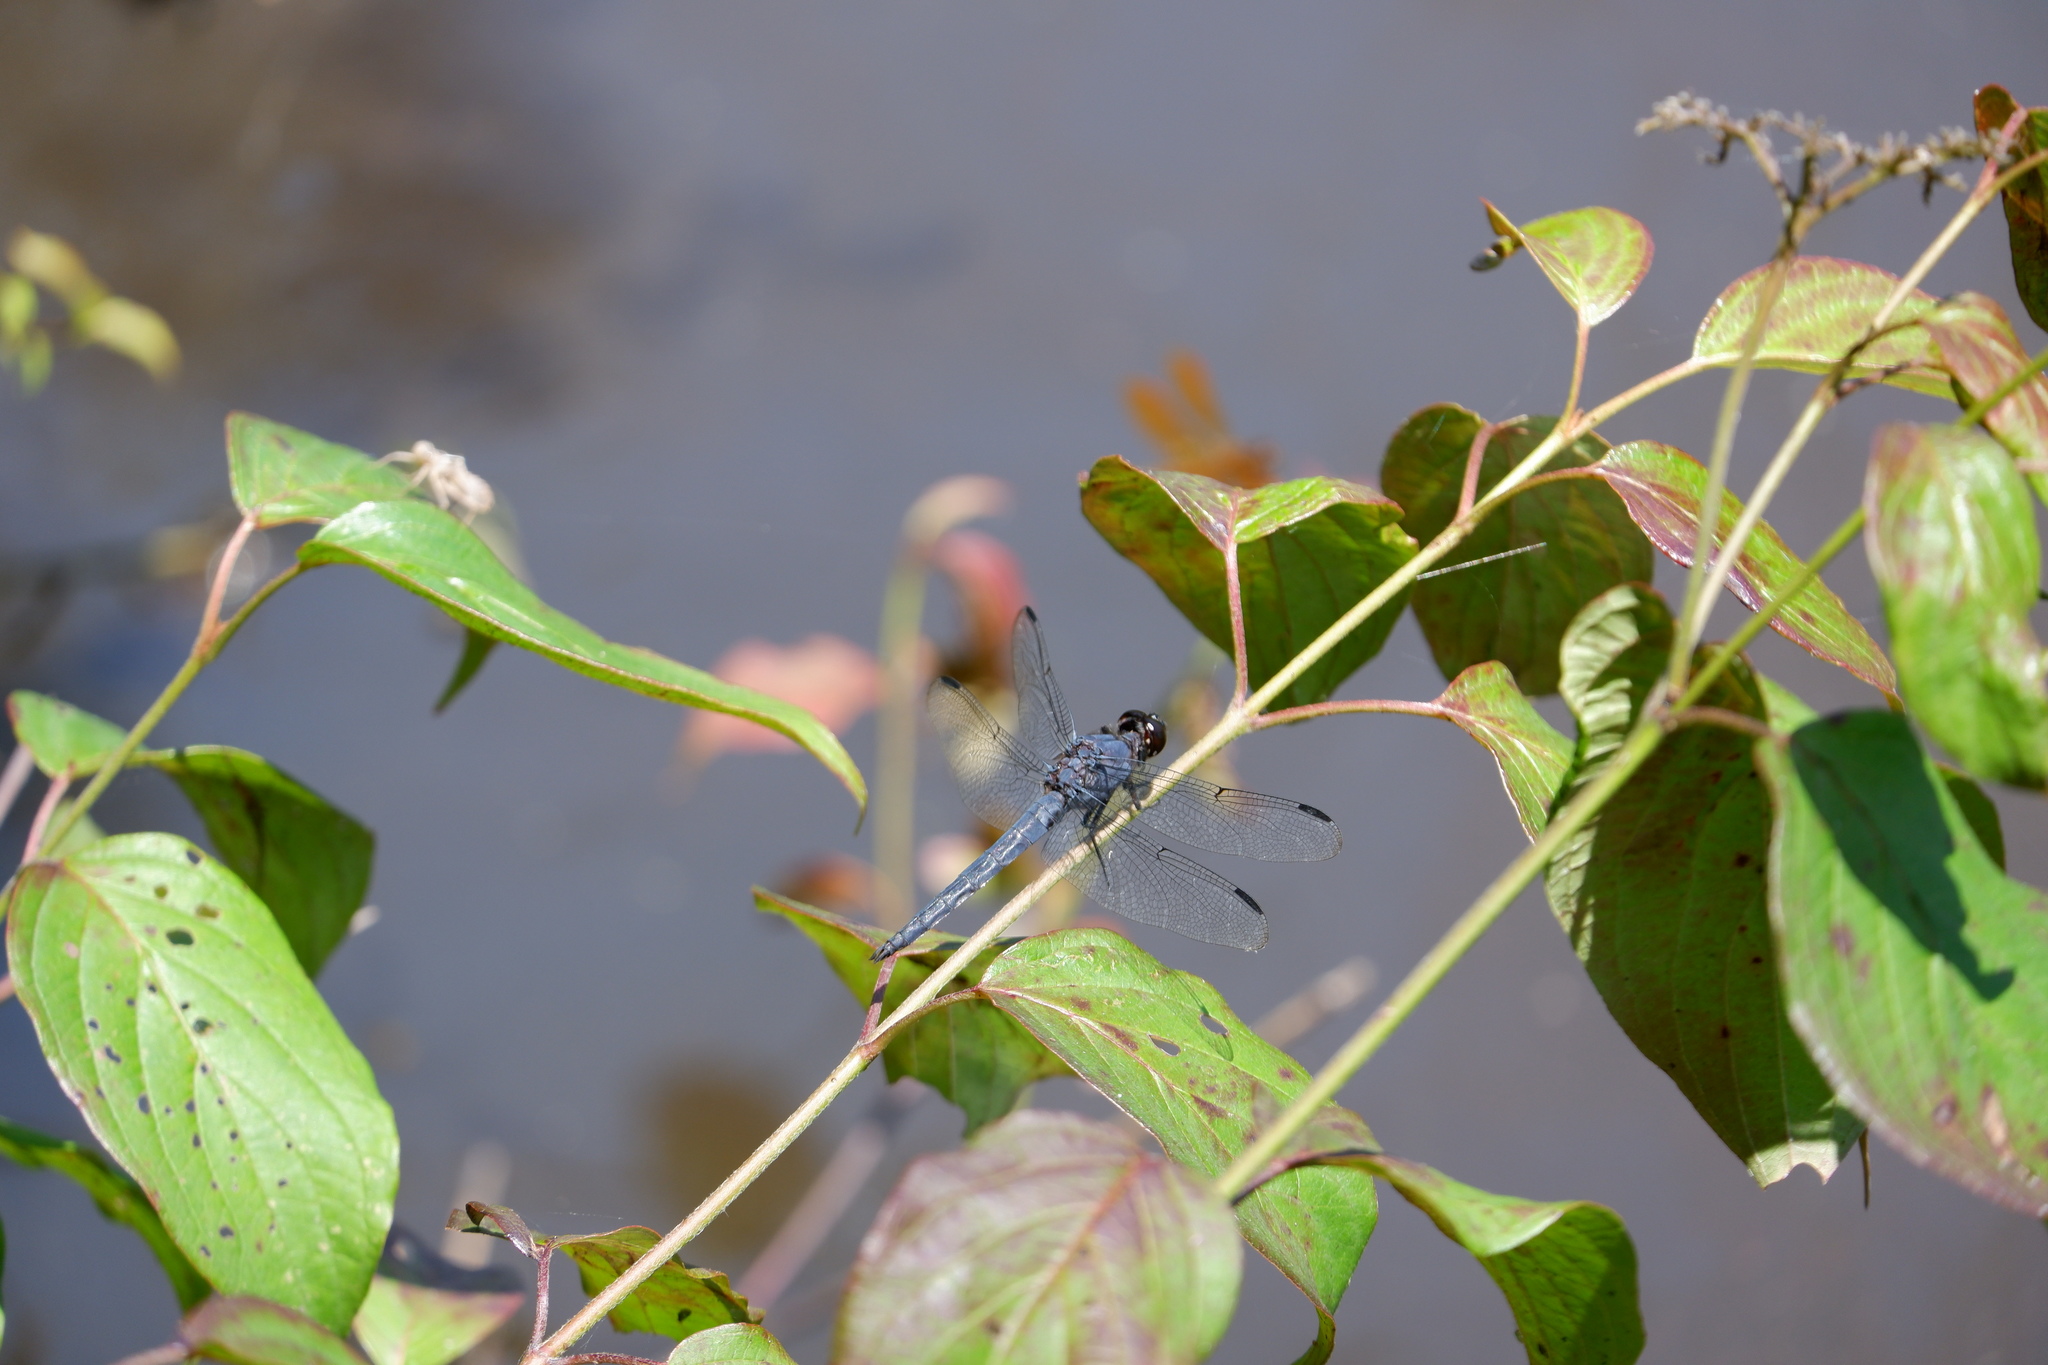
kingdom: Animalia
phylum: Arthropoda
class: Insecta
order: Odonata
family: Libellulidae
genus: Libellula
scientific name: Libellula incesta
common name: Slaty skimmer
